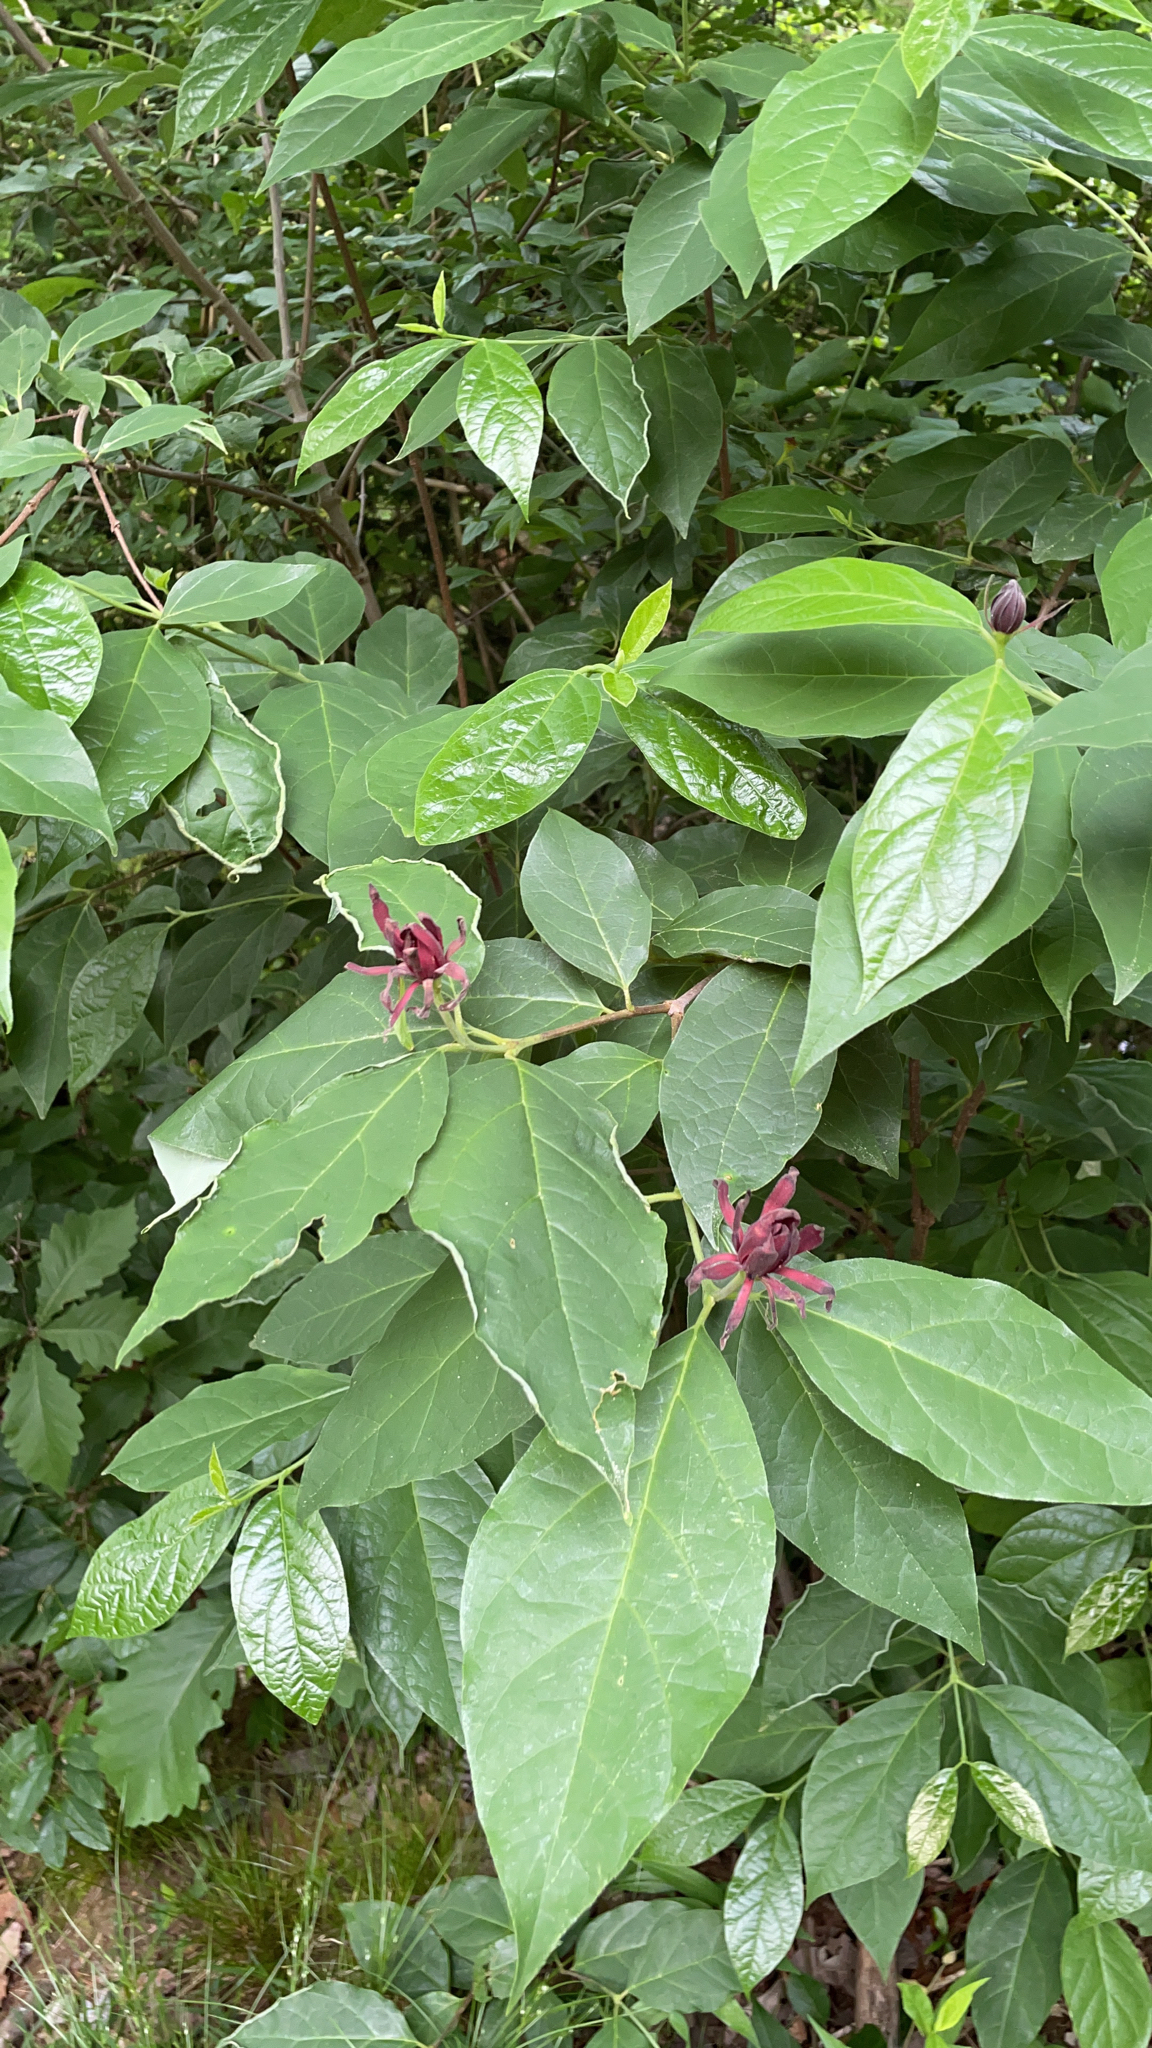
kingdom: Plantae
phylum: Tracheophyta
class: Magnoliopsida
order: Laurales
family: Calycanthaceae
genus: Calycanthus
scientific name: Calycanthus floridus
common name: Carolina-allspice
